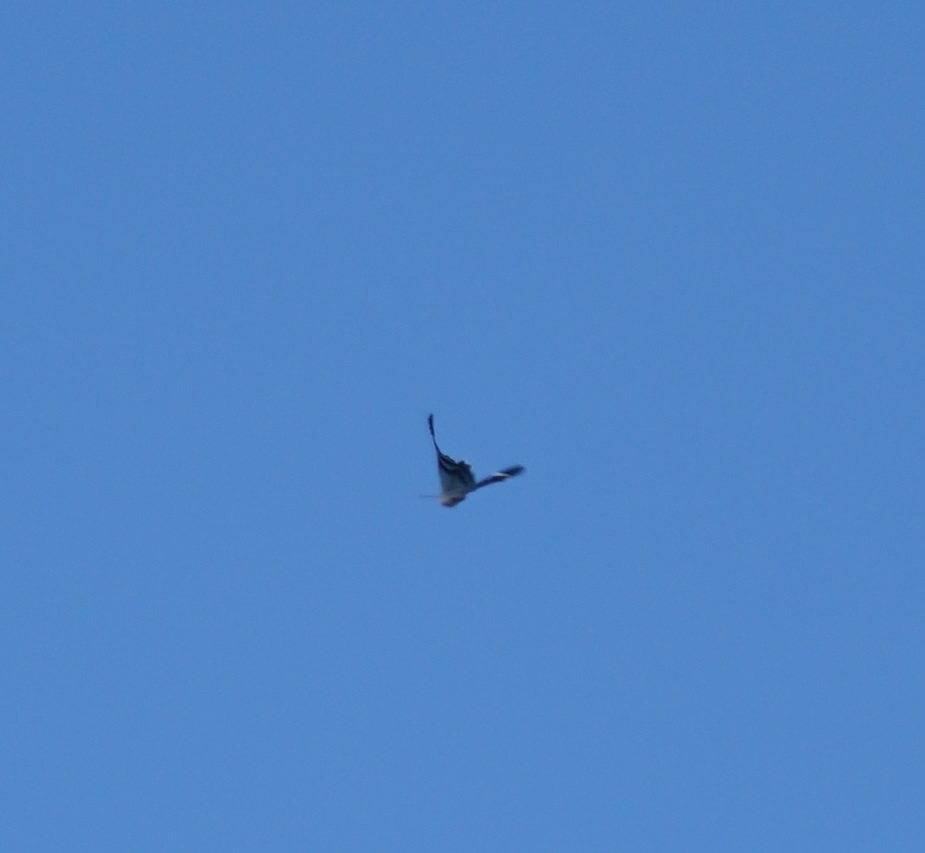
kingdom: Animalia
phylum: Arthropoda
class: Insecta
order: Lepidoptera
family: Uraniidae
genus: Alcides
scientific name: Alcides metaurus
